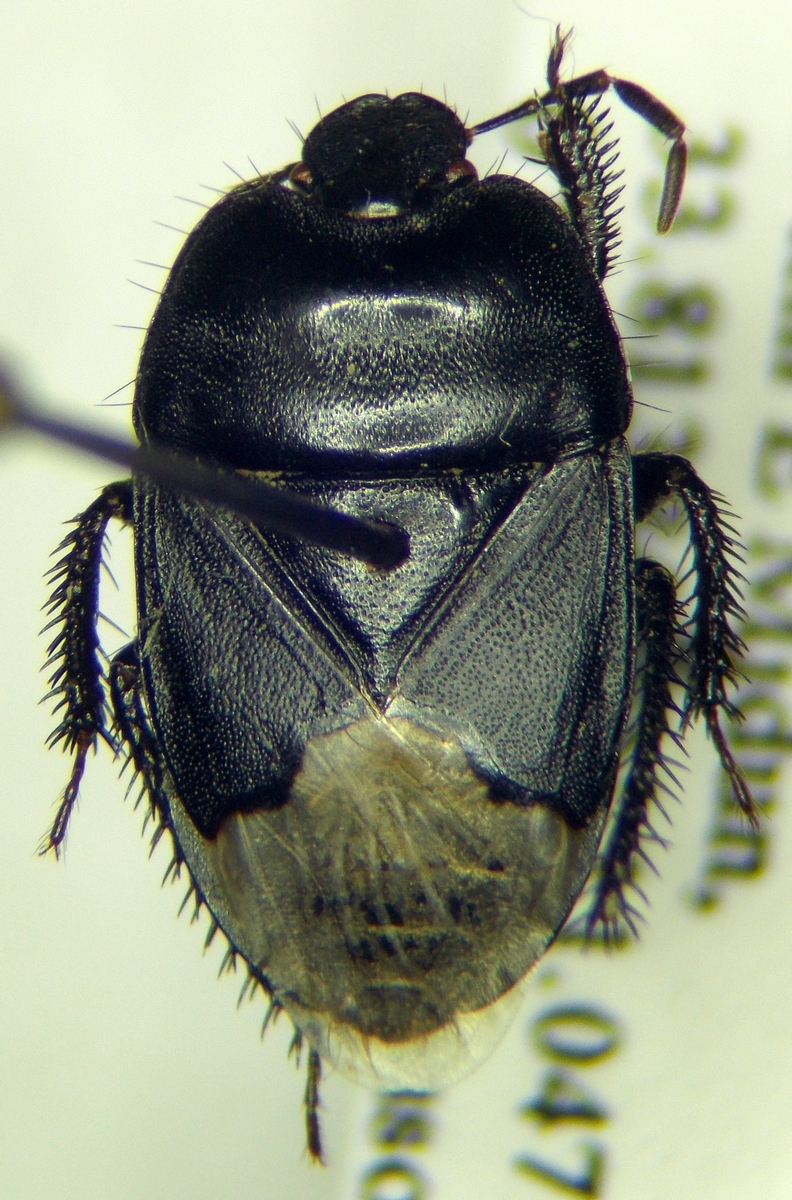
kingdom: Animalia
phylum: Arthropoda
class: Insecta
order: Hemiptera
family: Cydnidae
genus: Cydnus
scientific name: Cydnus aterrimus
